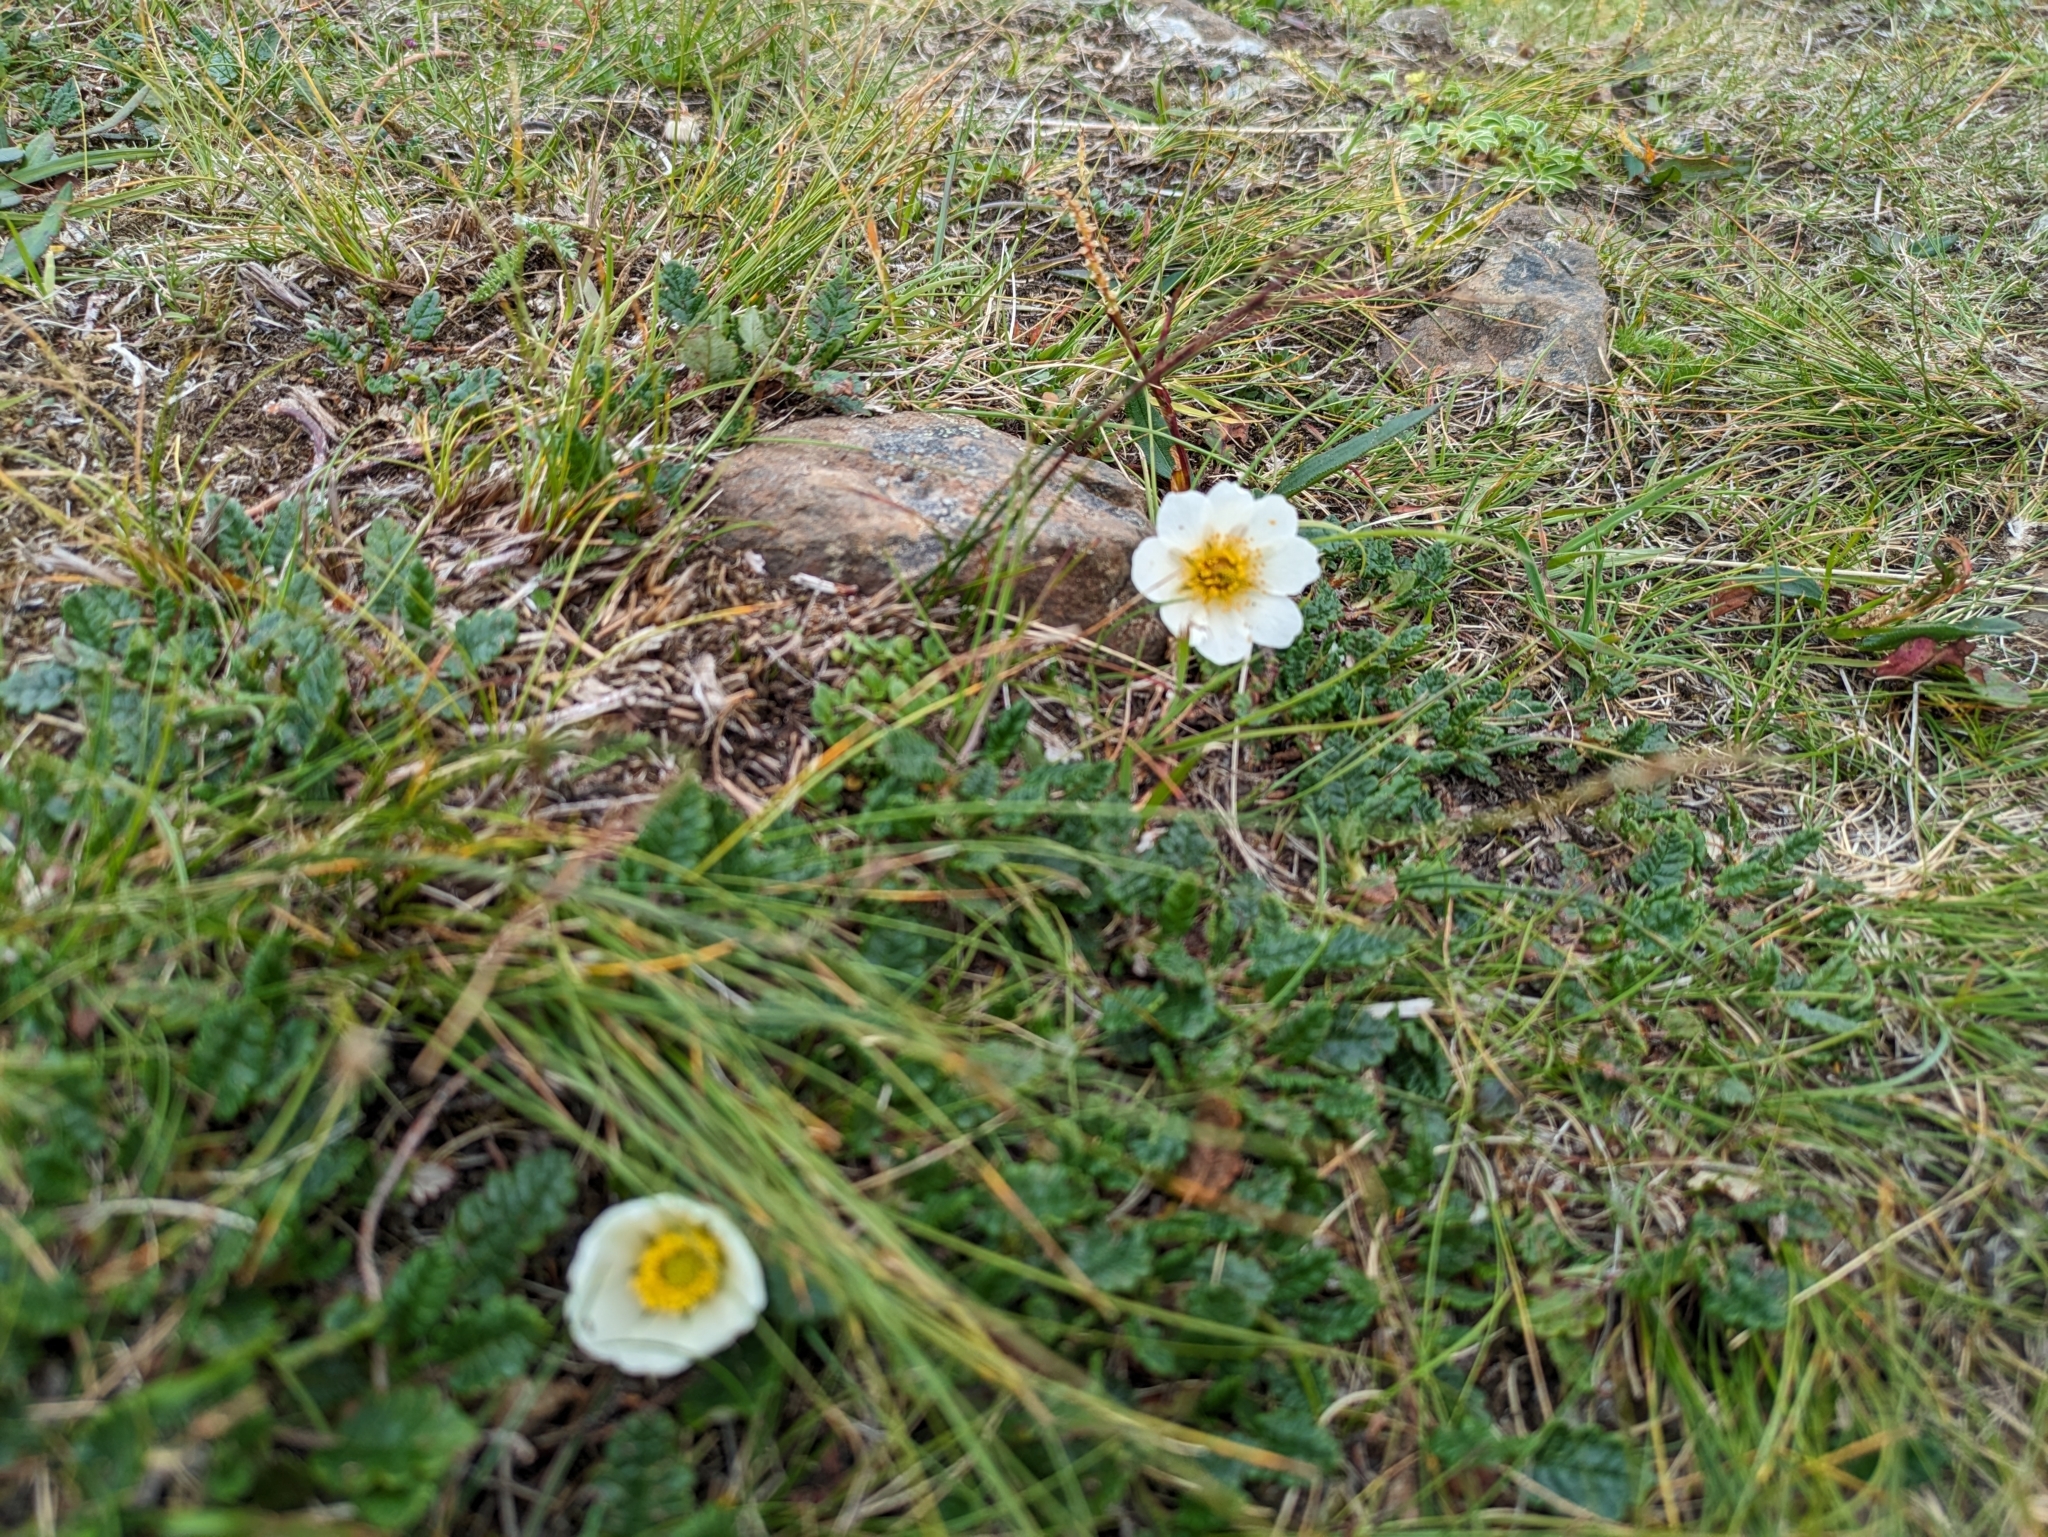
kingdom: Plantae
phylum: Tracheophyta
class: Magnoliopsida
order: Rosales
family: Rosaceae
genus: Dryas
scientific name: Dryas octopetala
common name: Eight-petal mountain-avens
